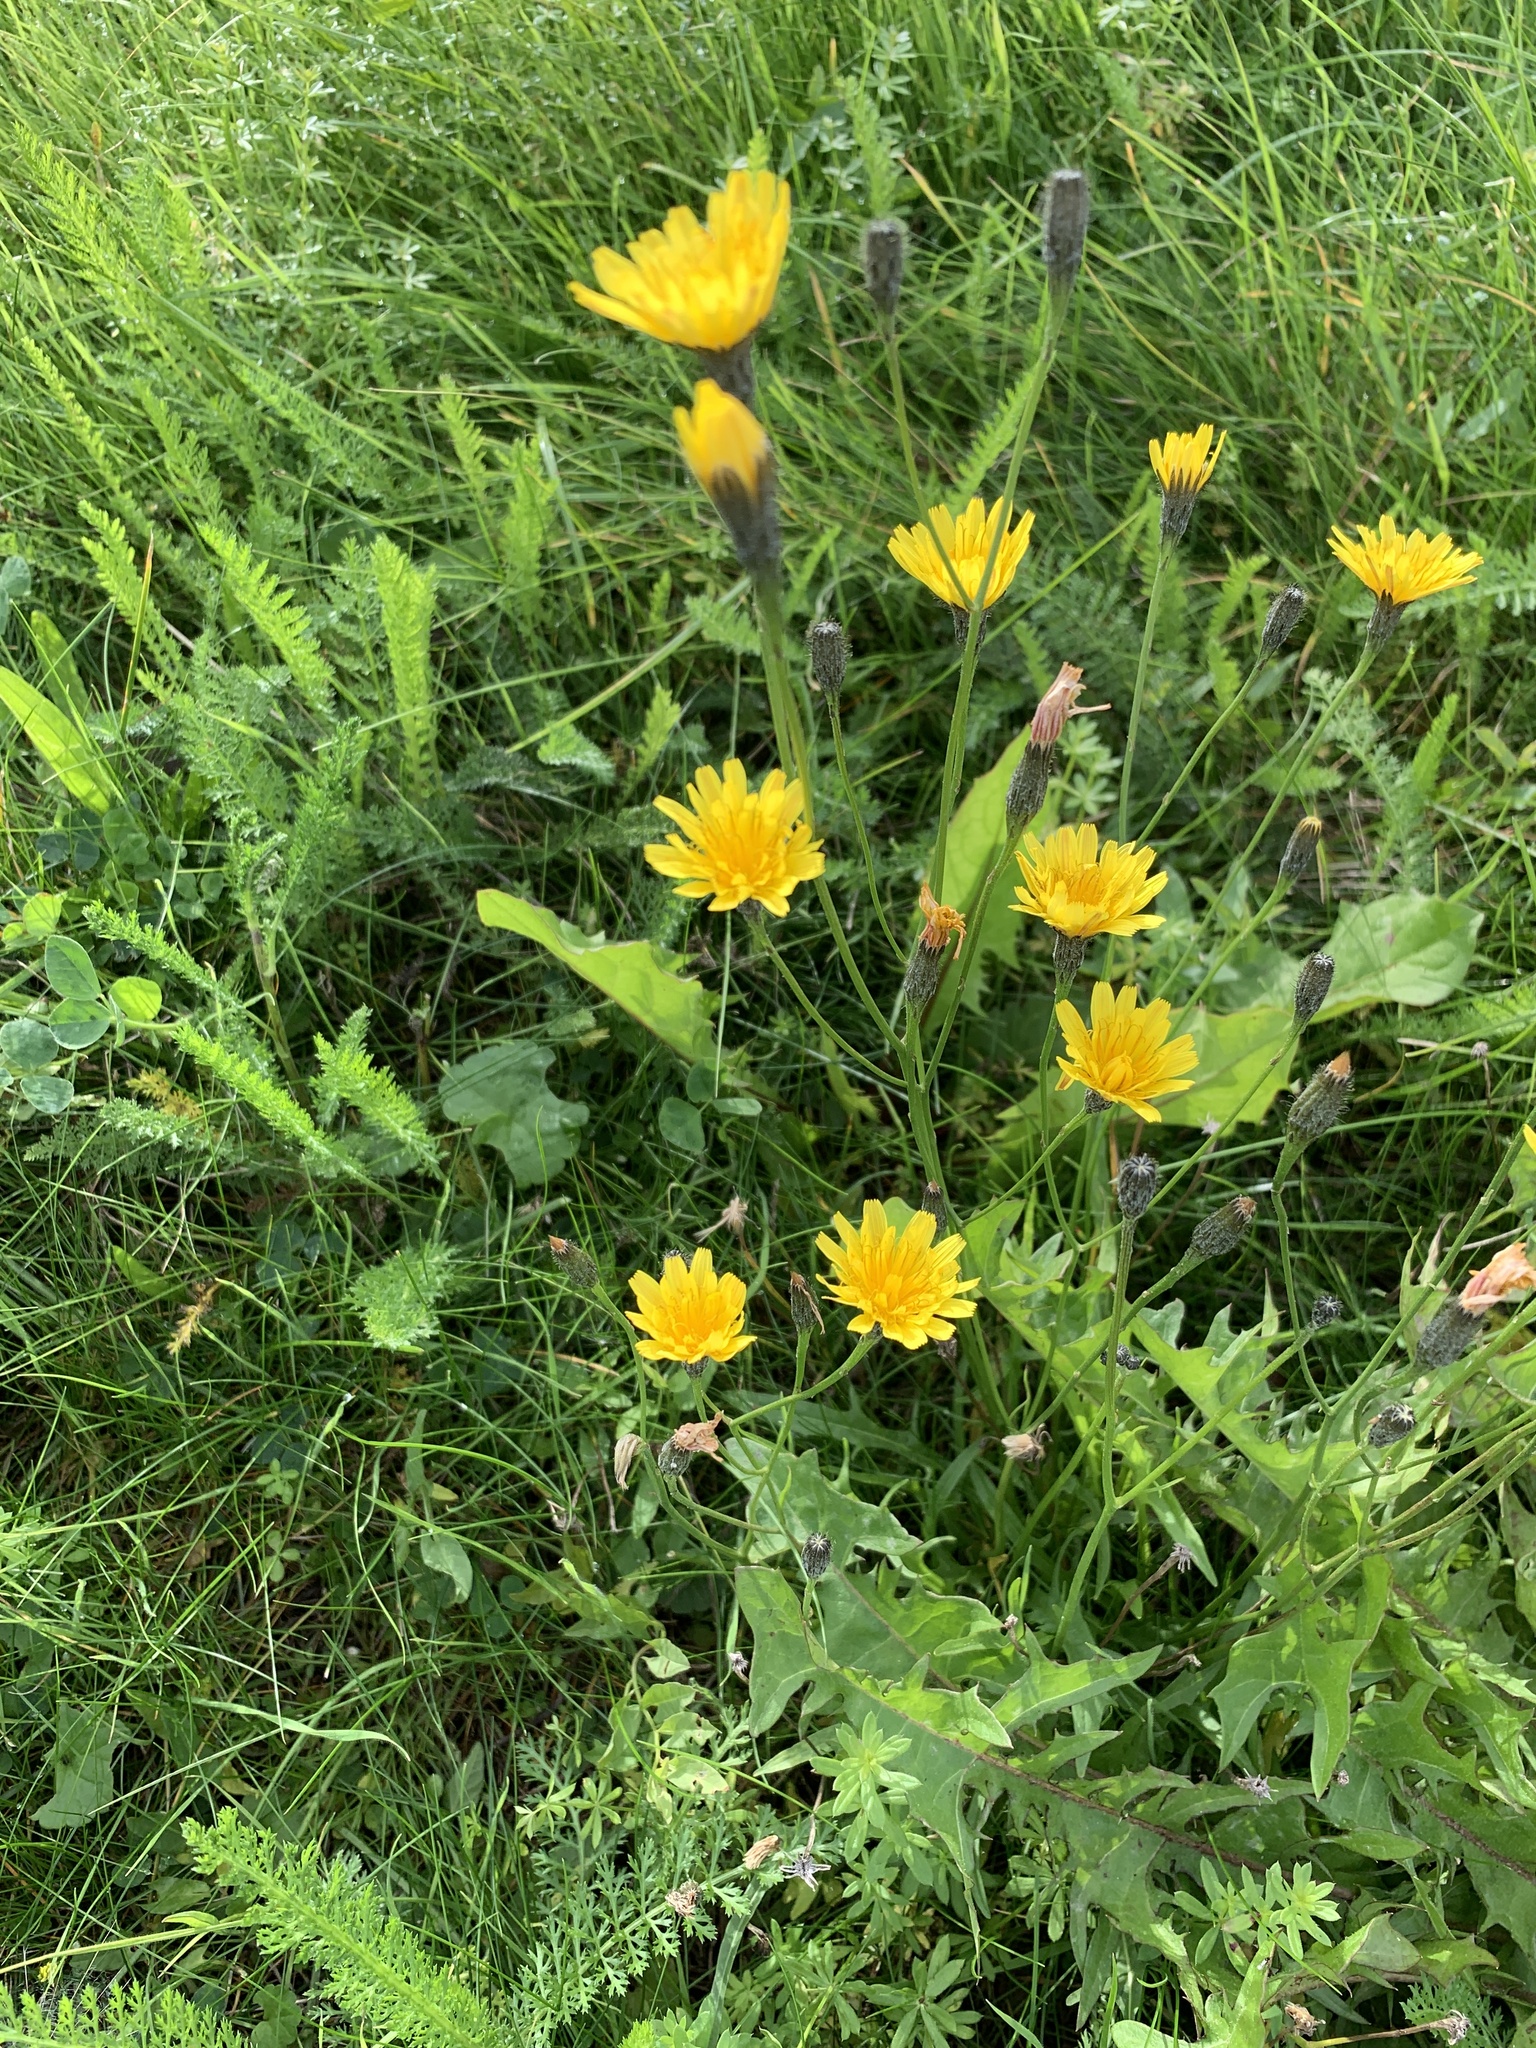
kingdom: Plantae
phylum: Tracheophyta
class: Magnoliopsida
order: Asterales
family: Asteraceae
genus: Scorzoneroides
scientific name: Scorzoneroides autumnalis
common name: Autumn hawkbit
